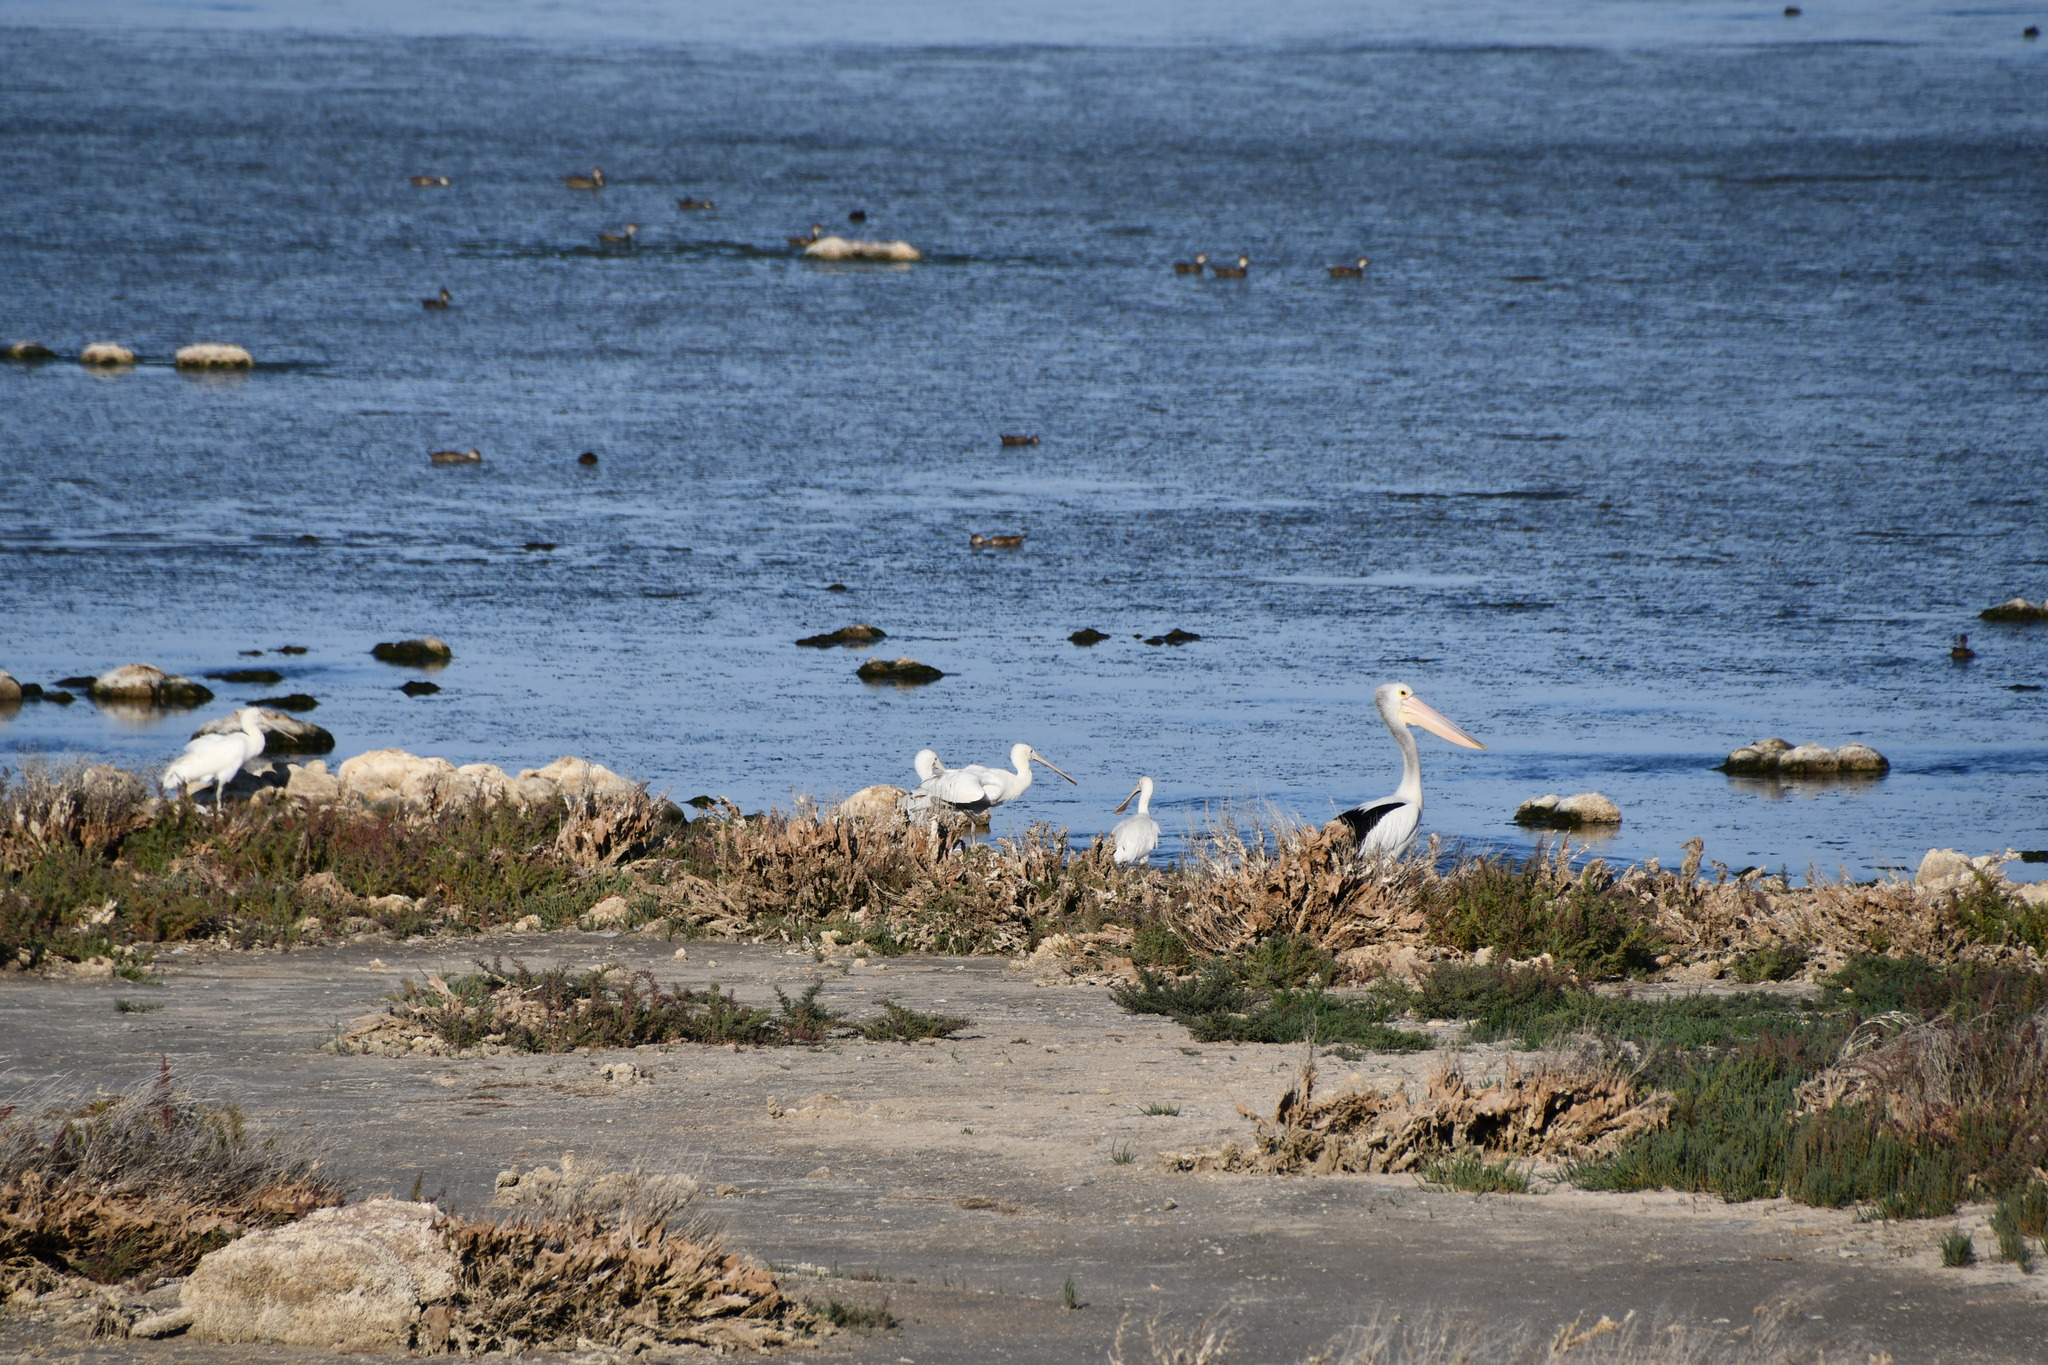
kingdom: Animalia
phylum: Chordata
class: Aves
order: Pelecaniformes
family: Threskiornithidae
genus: Platalea
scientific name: Platalea flavipes
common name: Yellow-billed spoonbill
